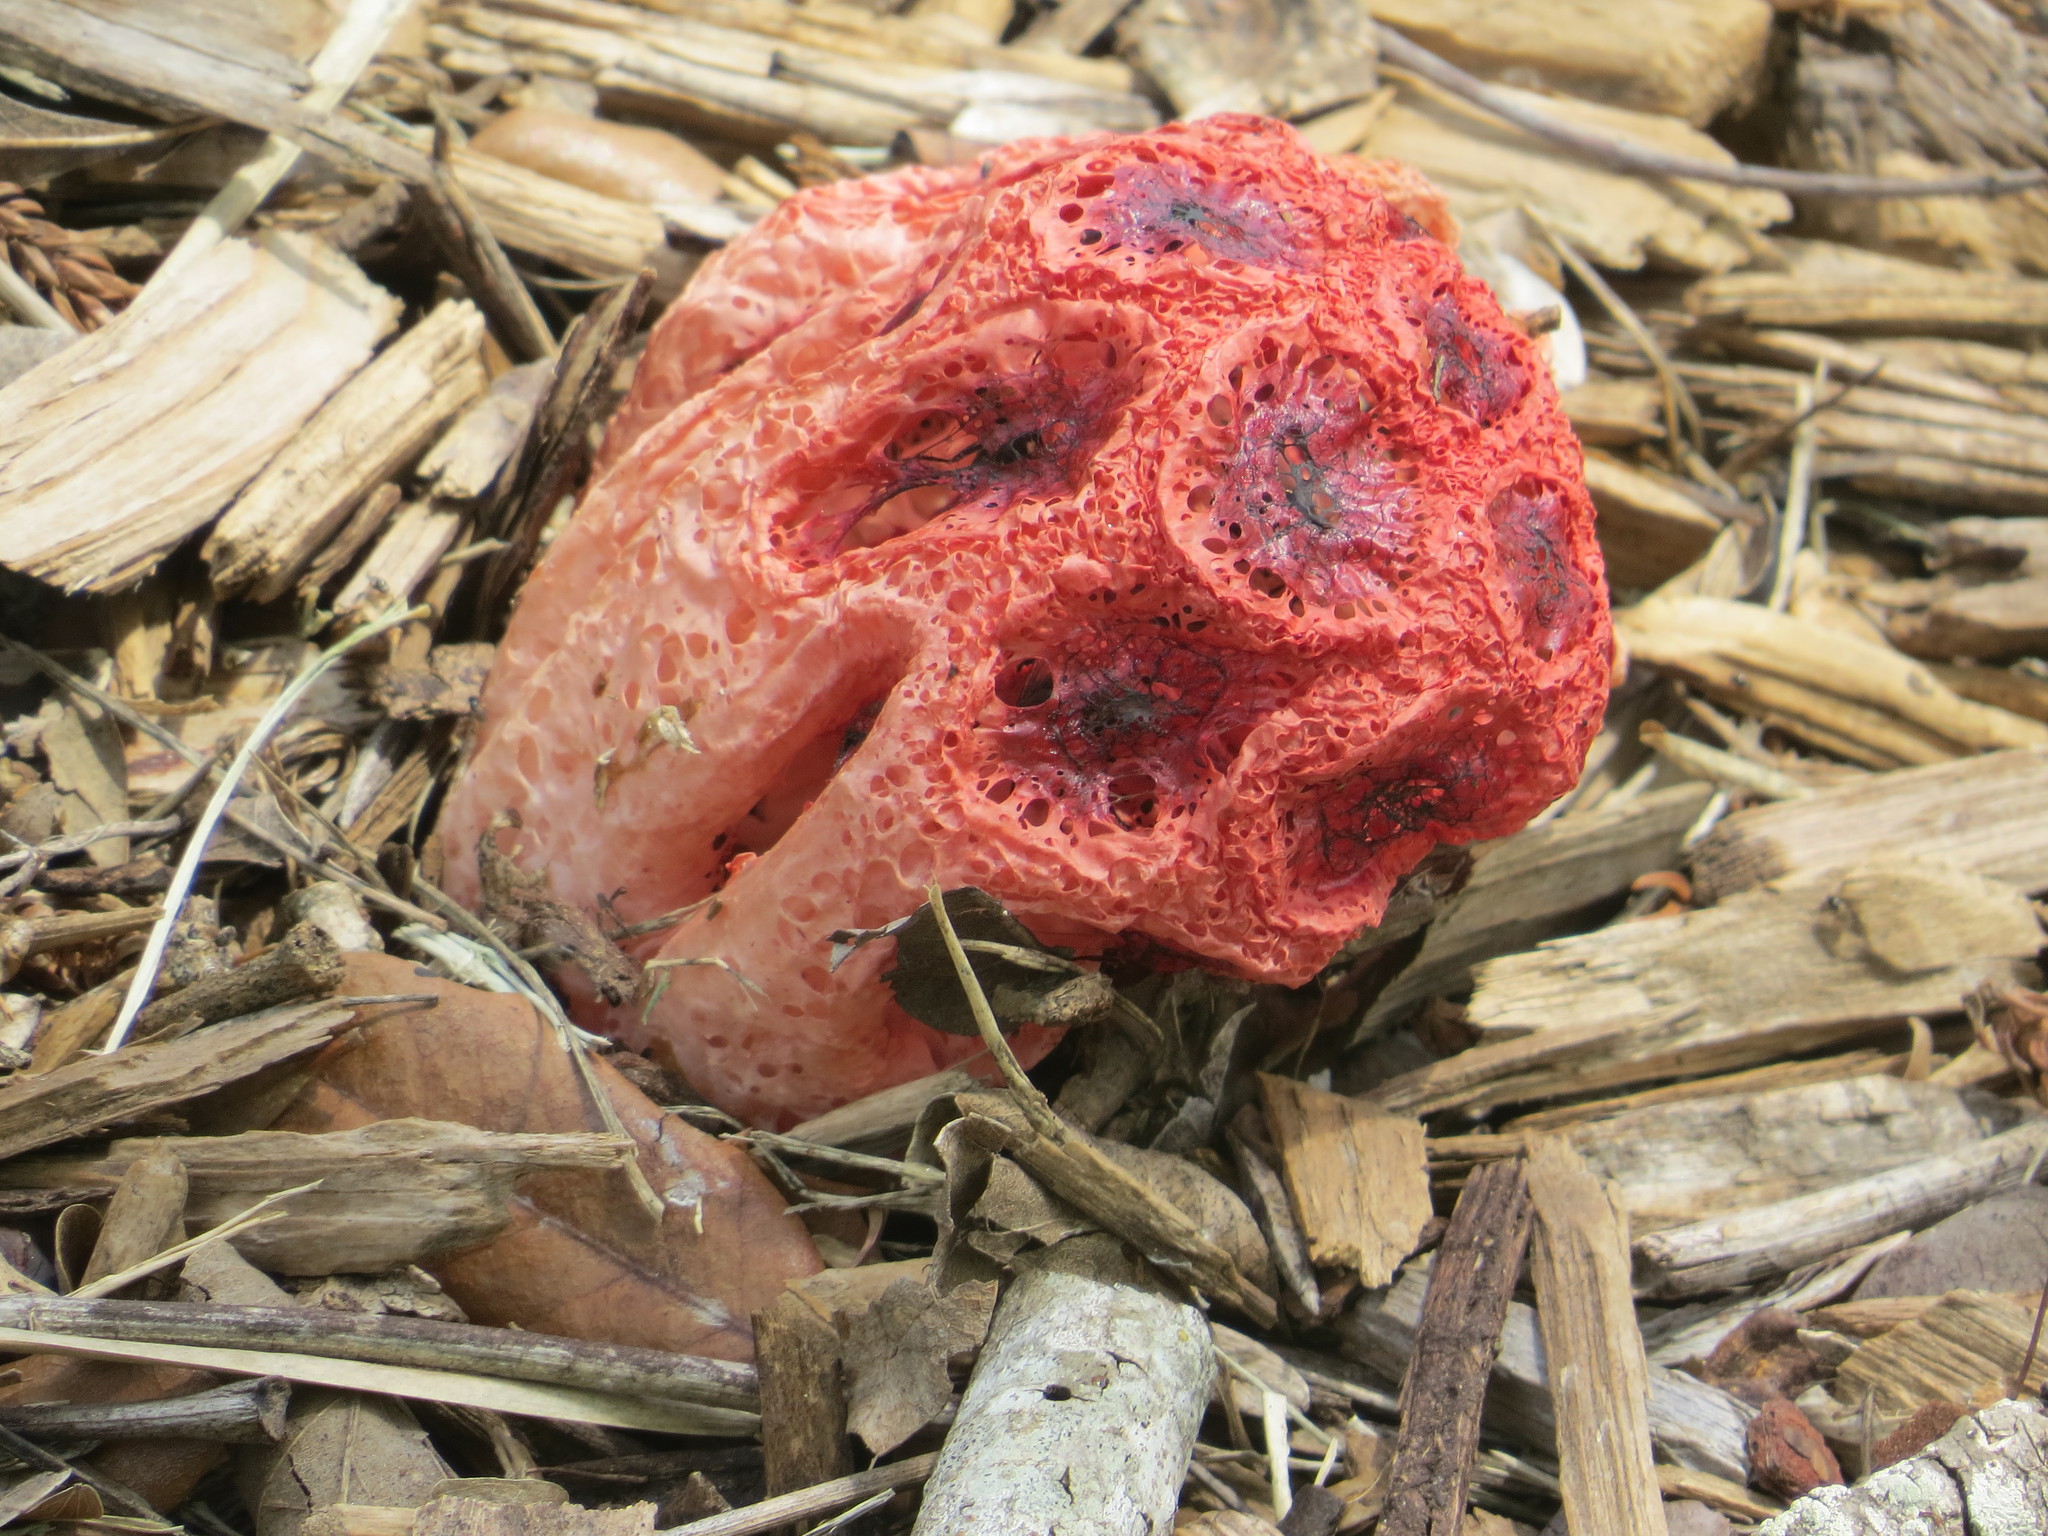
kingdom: Fungi
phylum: Basidiomycota
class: Agaricomycetes
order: Phallales
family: Phallaceae
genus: Clathrus
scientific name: Clathrus crispatus
